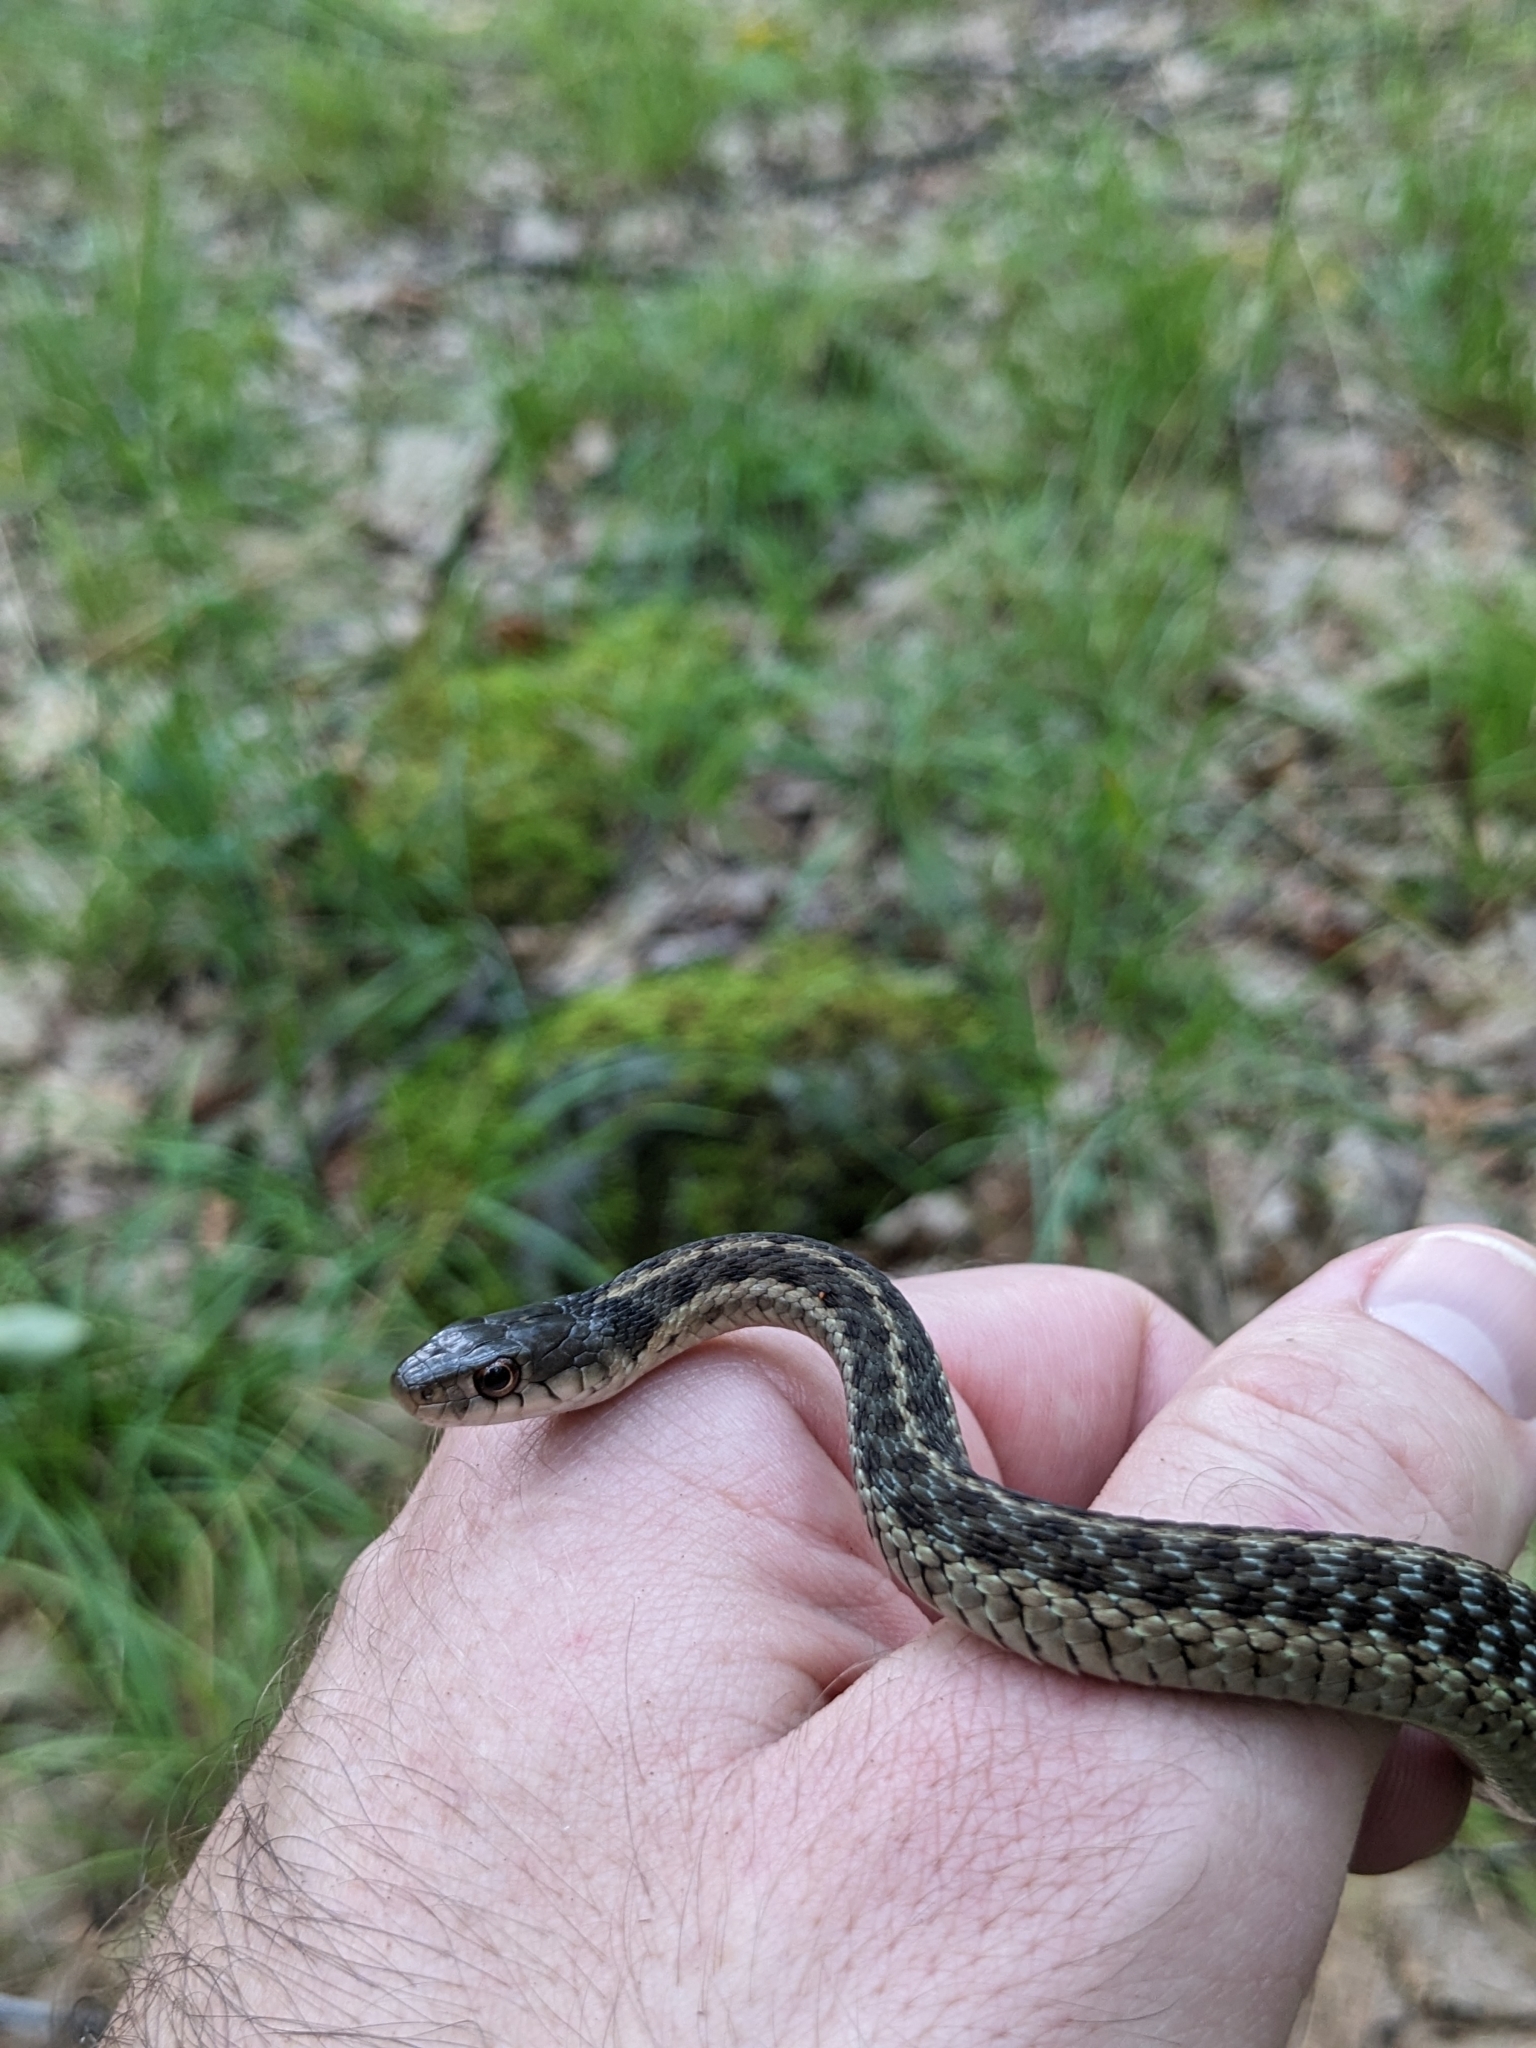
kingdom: Animalia
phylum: Chordata
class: Squamata
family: Colubridae
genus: Thamnophis
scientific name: Thamnophis sirtalis
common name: Common garter snake
